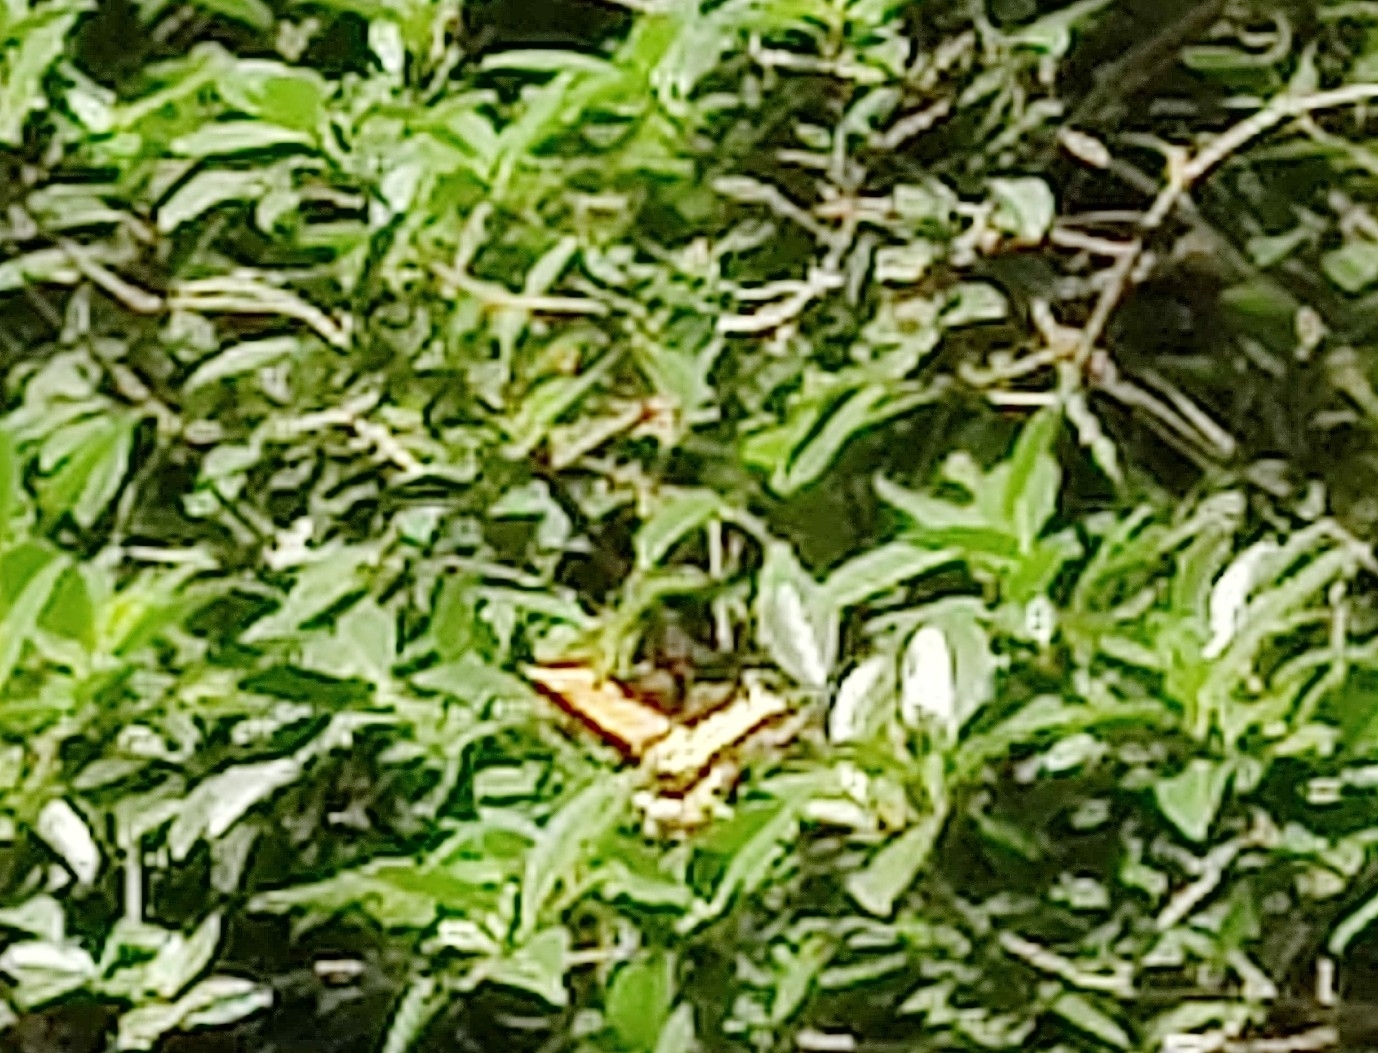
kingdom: Animalia
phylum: Arthropoda
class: Insecta
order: Lepidoptera
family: Papilionidae
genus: Papilio
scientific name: Papilio astyalus
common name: Astyalus swallowtail
